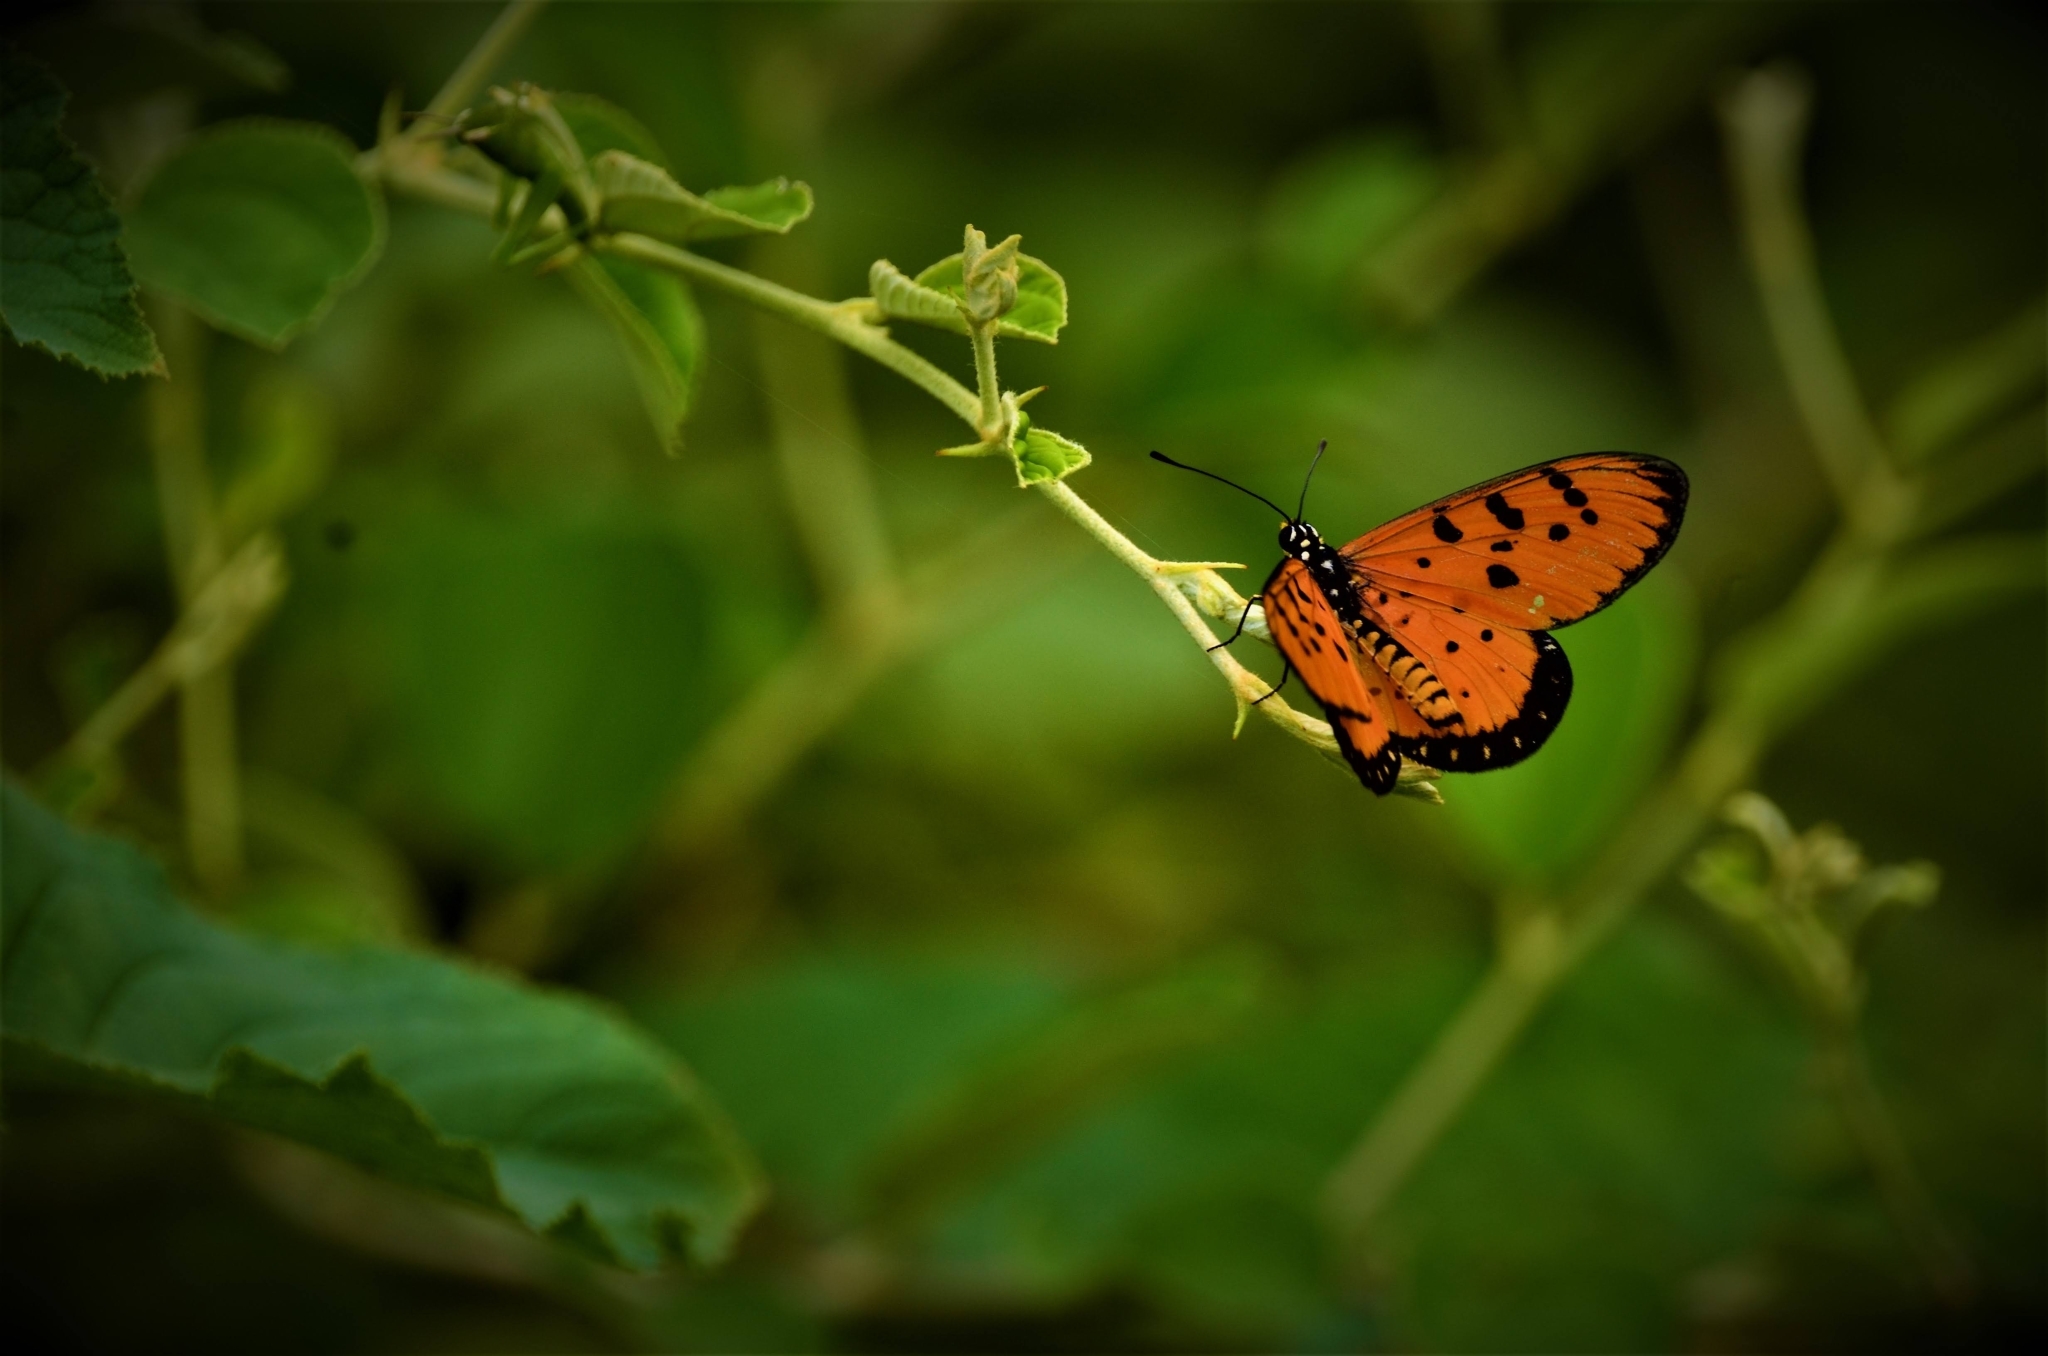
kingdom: Animalia
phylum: Arthropoda
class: Insecta
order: Lepidoptera
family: Nymphalidae
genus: Acraea
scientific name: Acraea terpsicore
